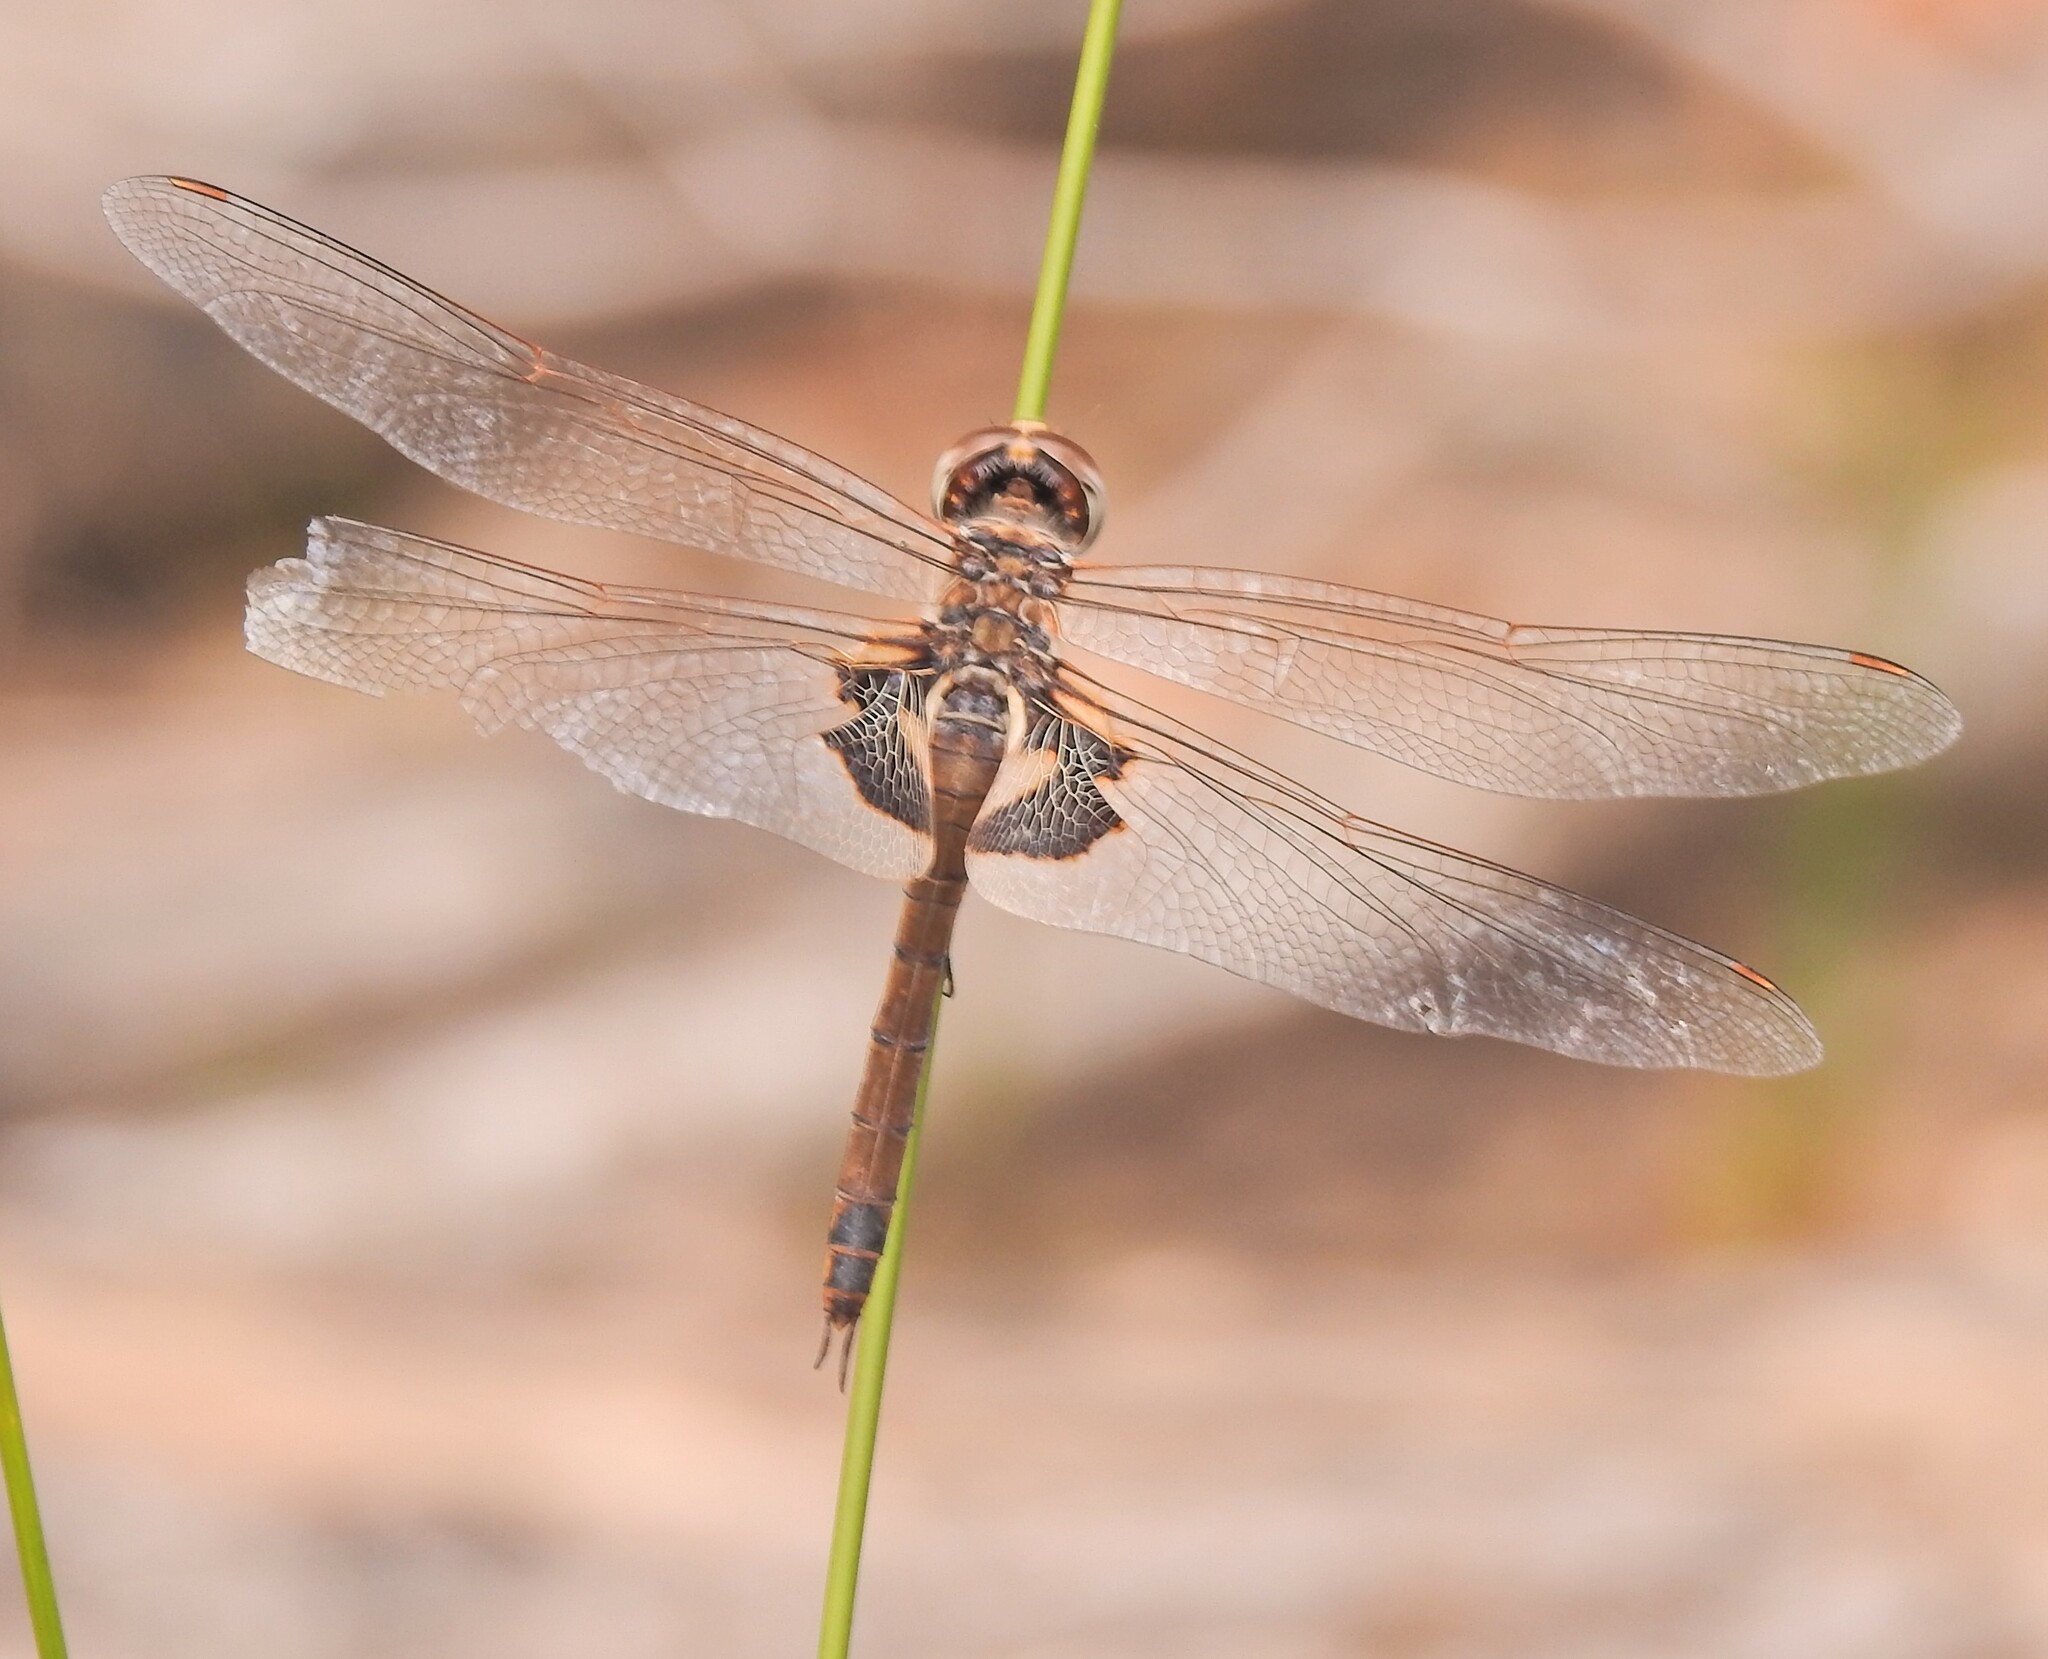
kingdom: Animalia
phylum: Arthropoda
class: Insecta
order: Odonata
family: Libellulidae
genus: Tramea
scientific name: Tramea loewii
